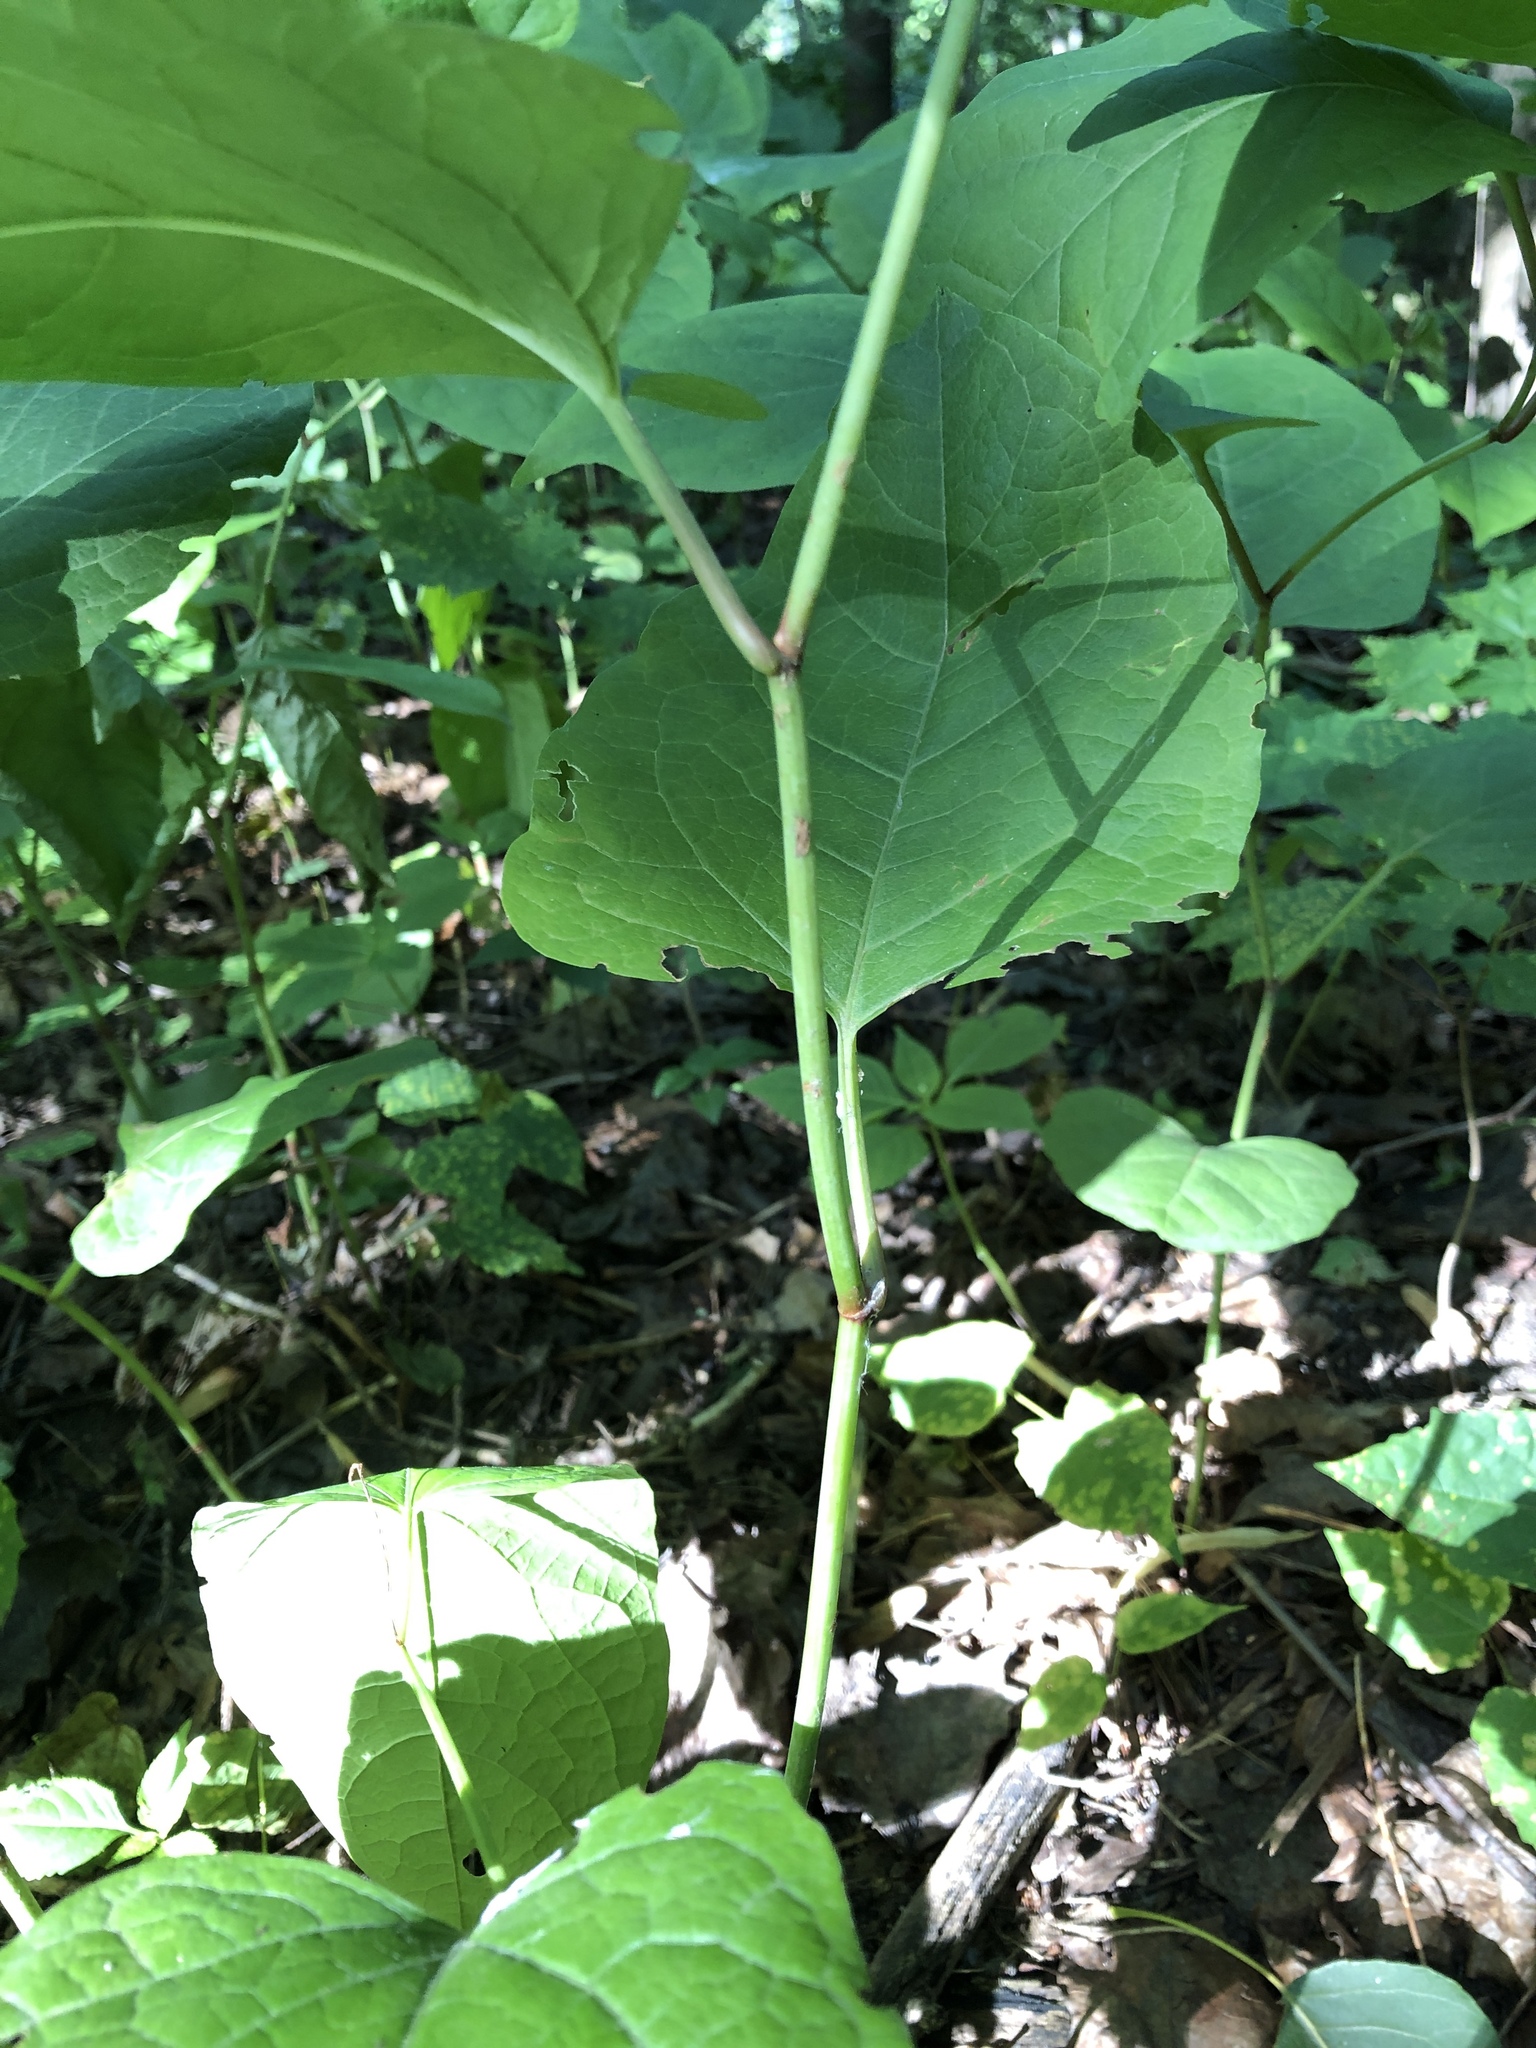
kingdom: Plantae
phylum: Tracheophyta
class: Magnoliopsida
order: Caryophyllales
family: Polygonaceae
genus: Reynoutria
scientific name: Reynoutria bohemica
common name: Bohemian knotweed
